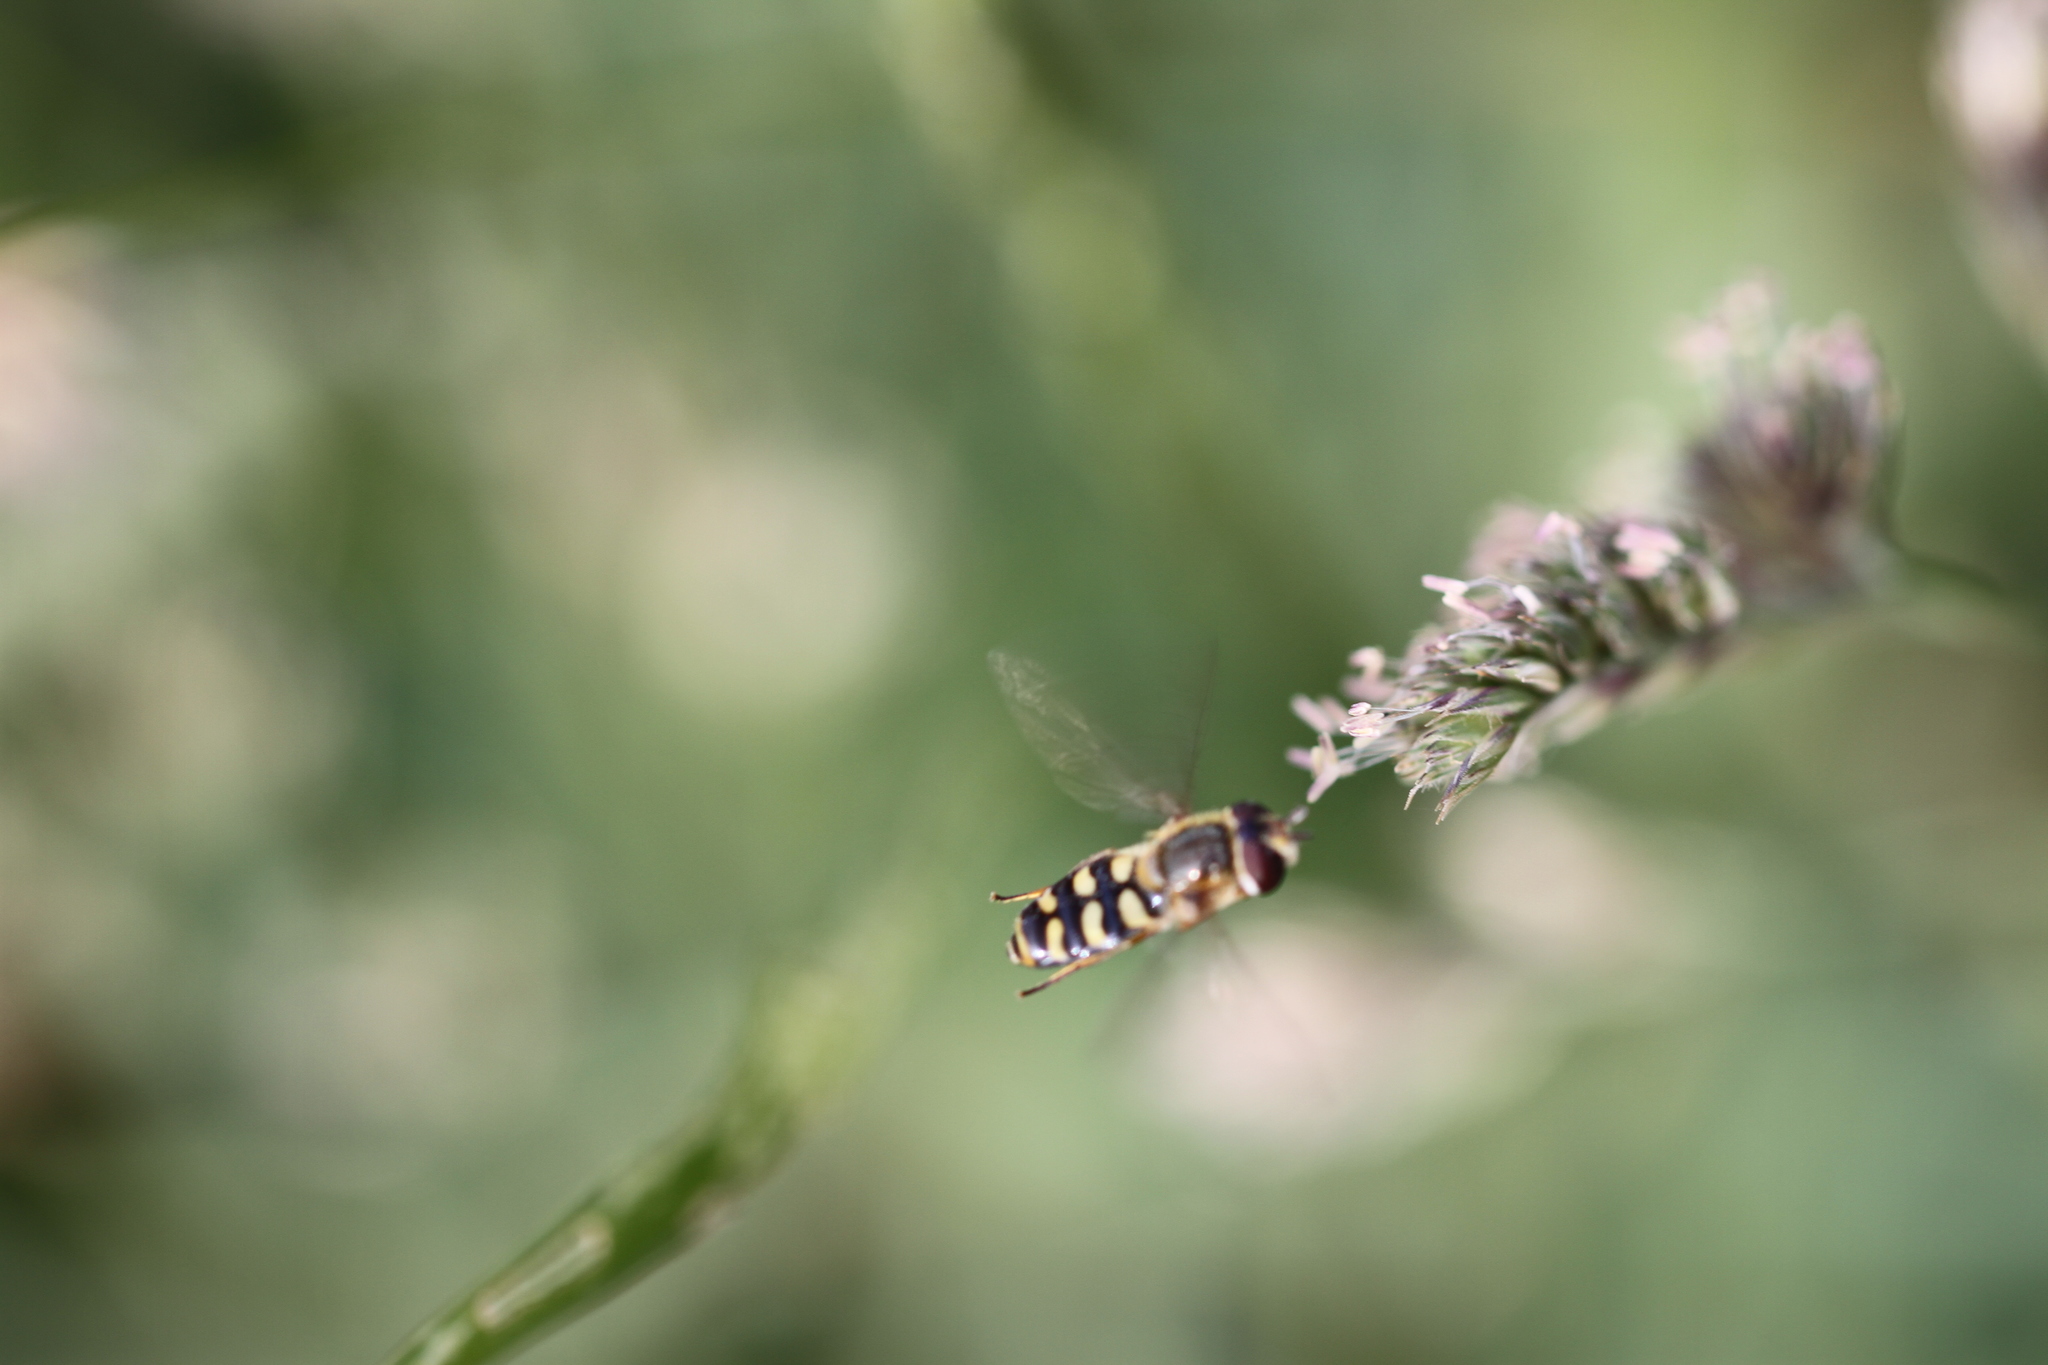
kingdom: Animalia
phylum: Arthropoda
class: Insecta
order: Diptera
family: Syrphidae
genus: Eupeodes
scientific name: Eupeodes
